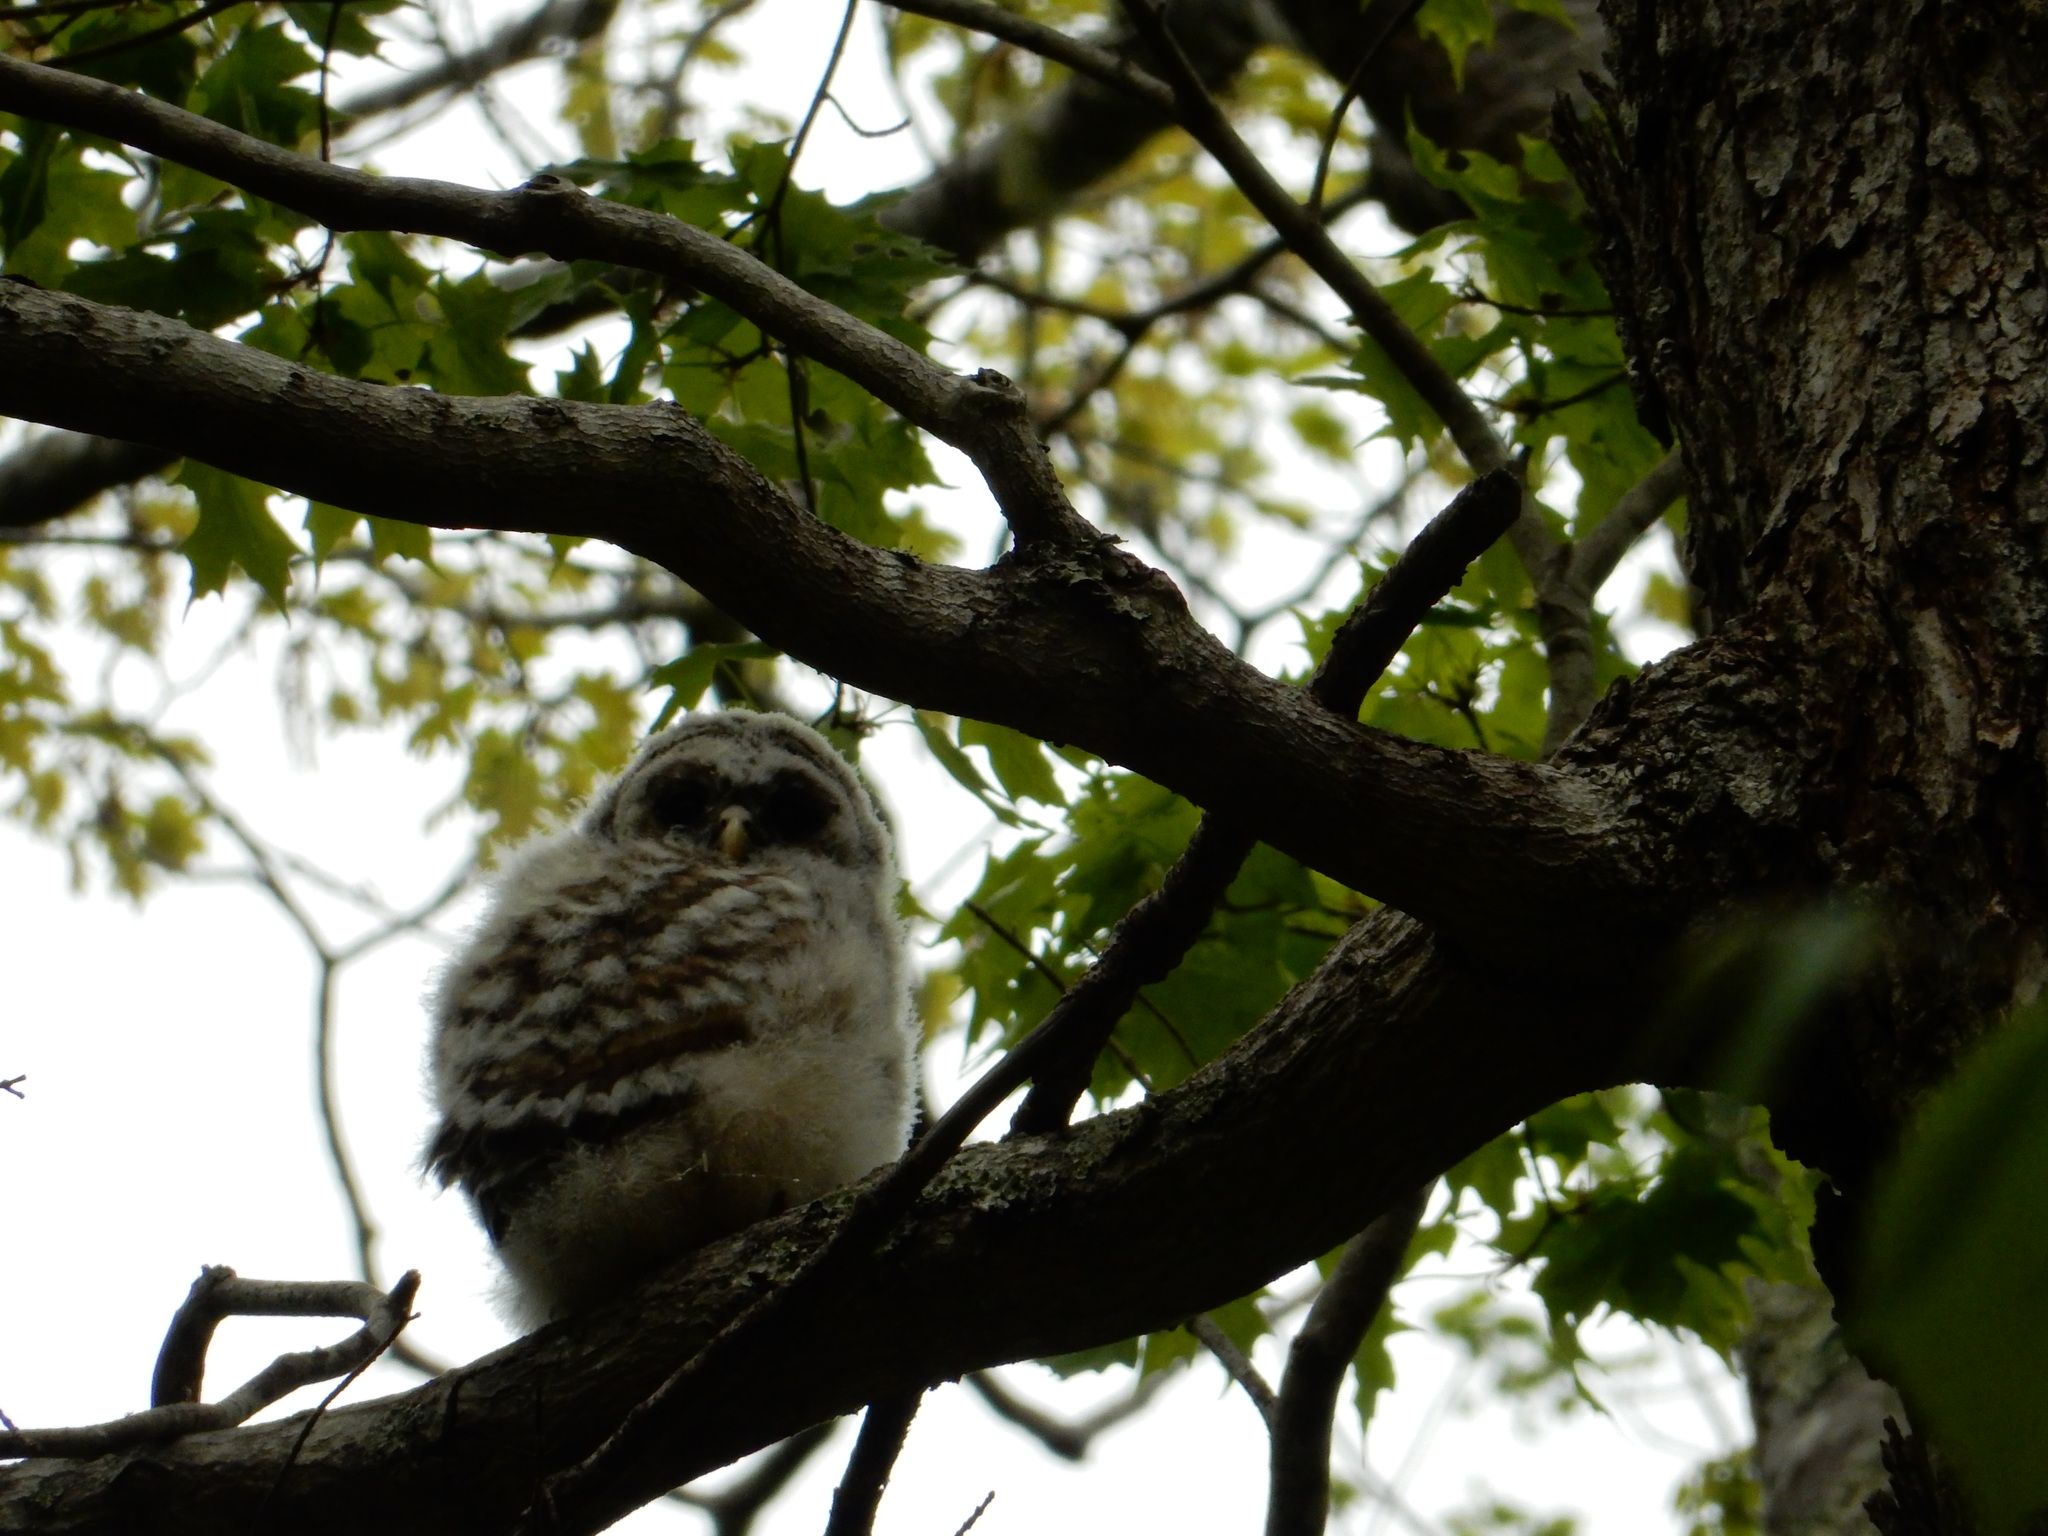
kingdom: Animalia
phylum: Chordata
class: Aves
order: Strigiformes
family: Strigidae
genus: Strix
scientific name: Strix varia
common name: Barred owl
